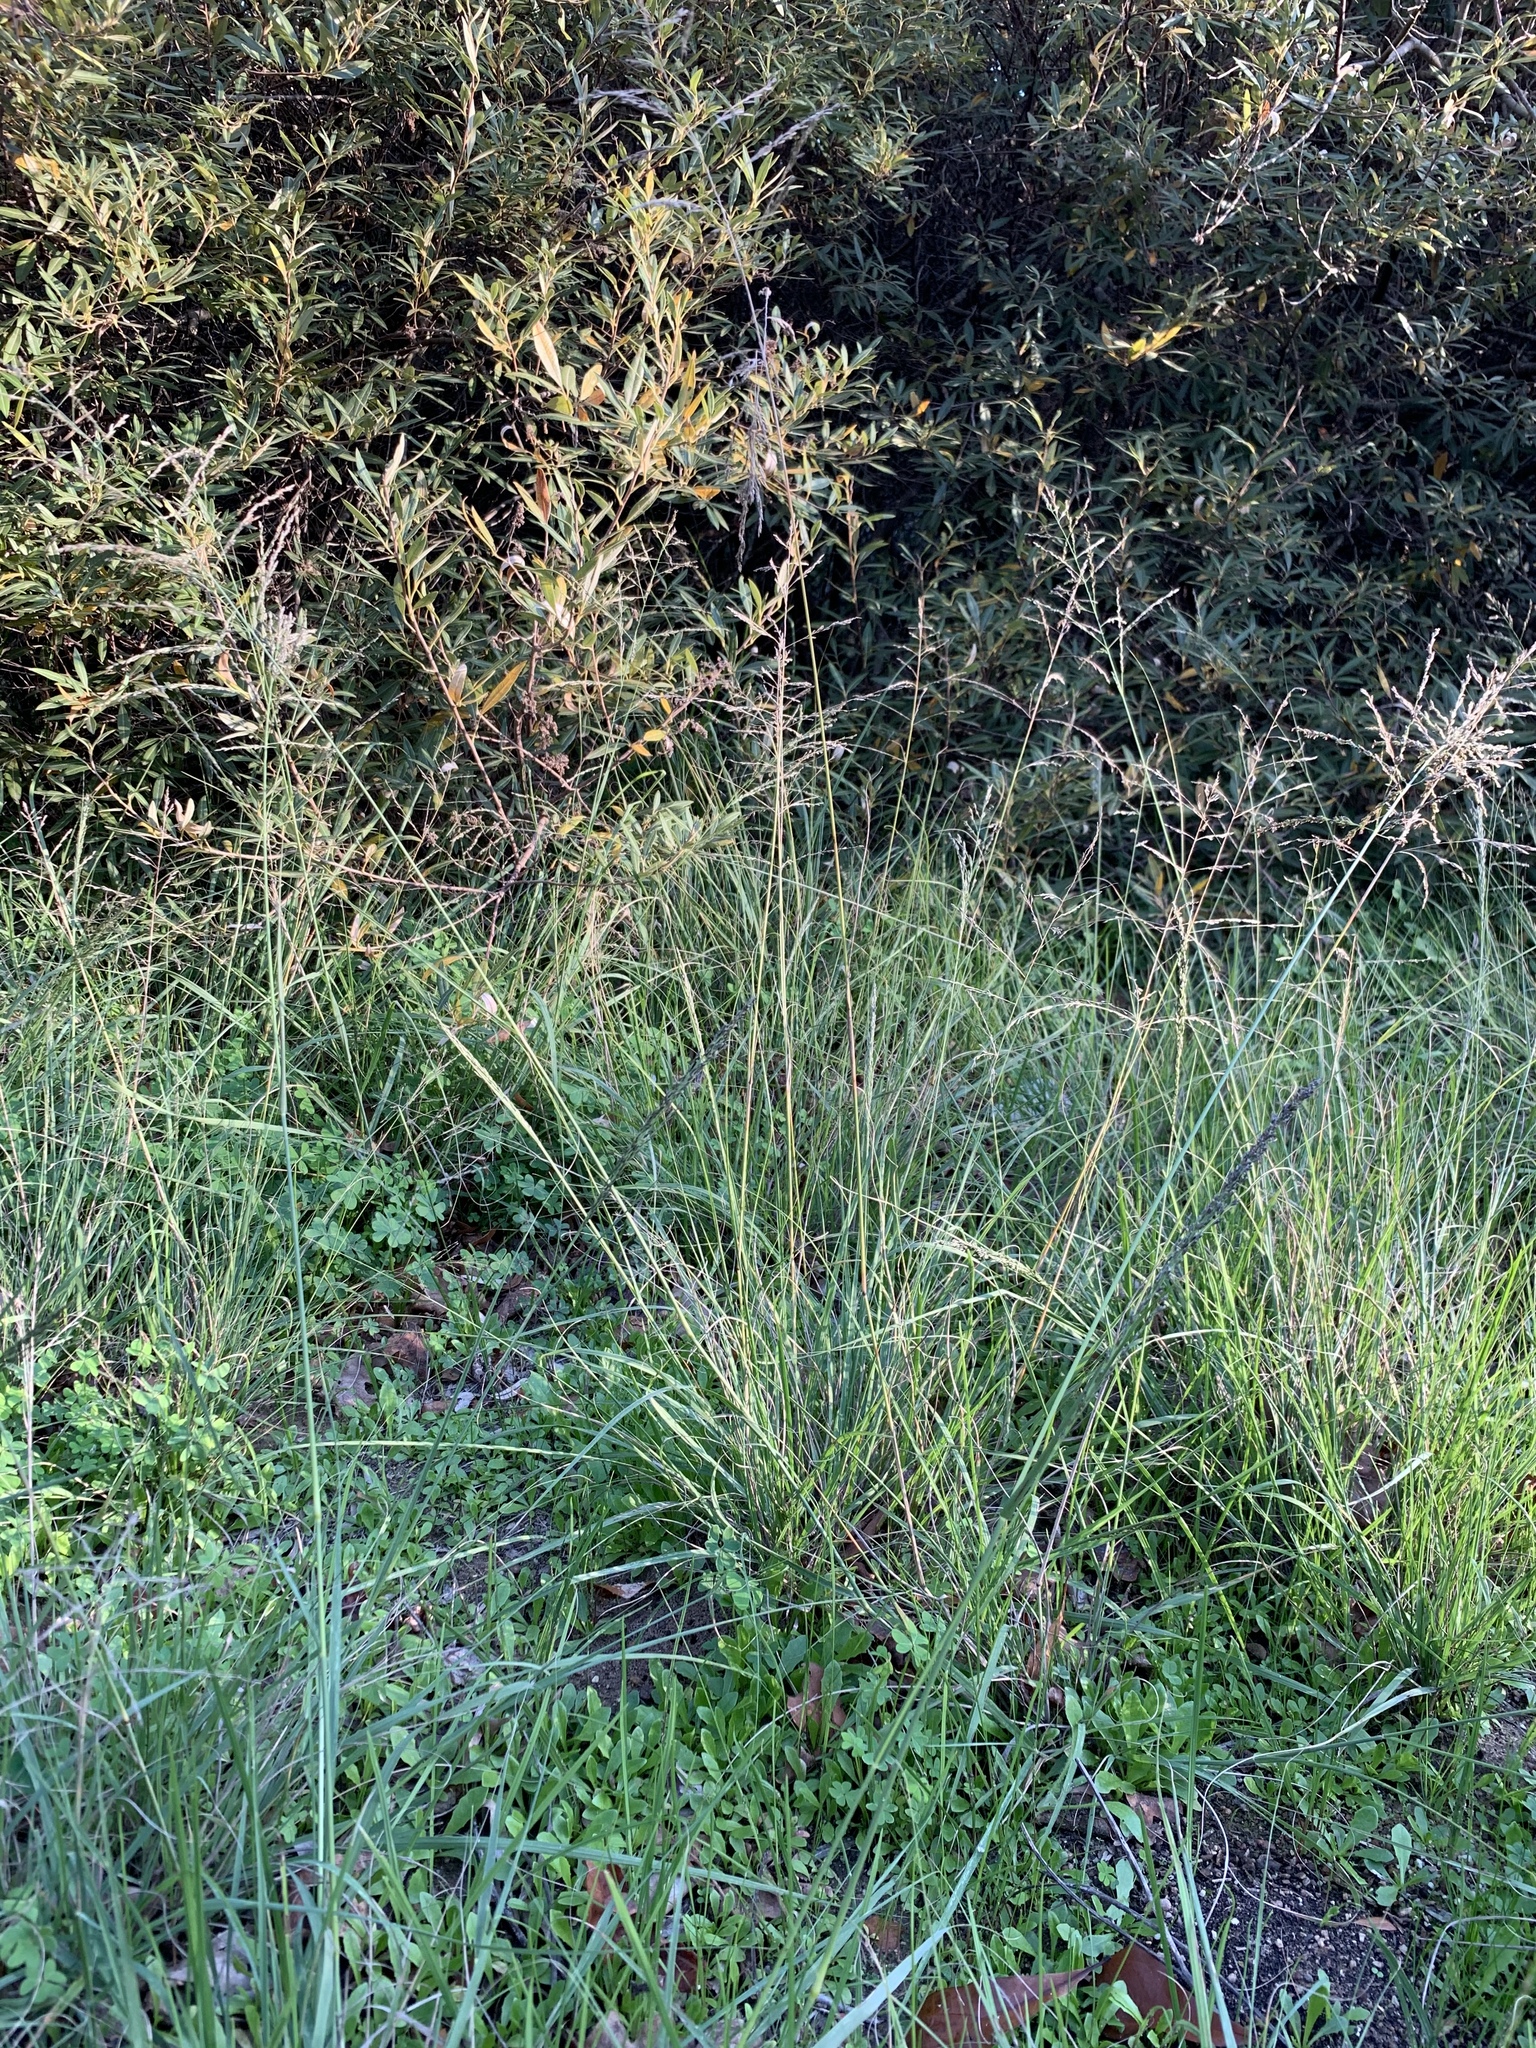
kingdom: Plantae
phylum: Tracheophyta
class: Liliopsida
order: Poales
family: Poaceae
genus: Eragrostis
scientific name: Eragrostis curvula
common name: African love-grass
